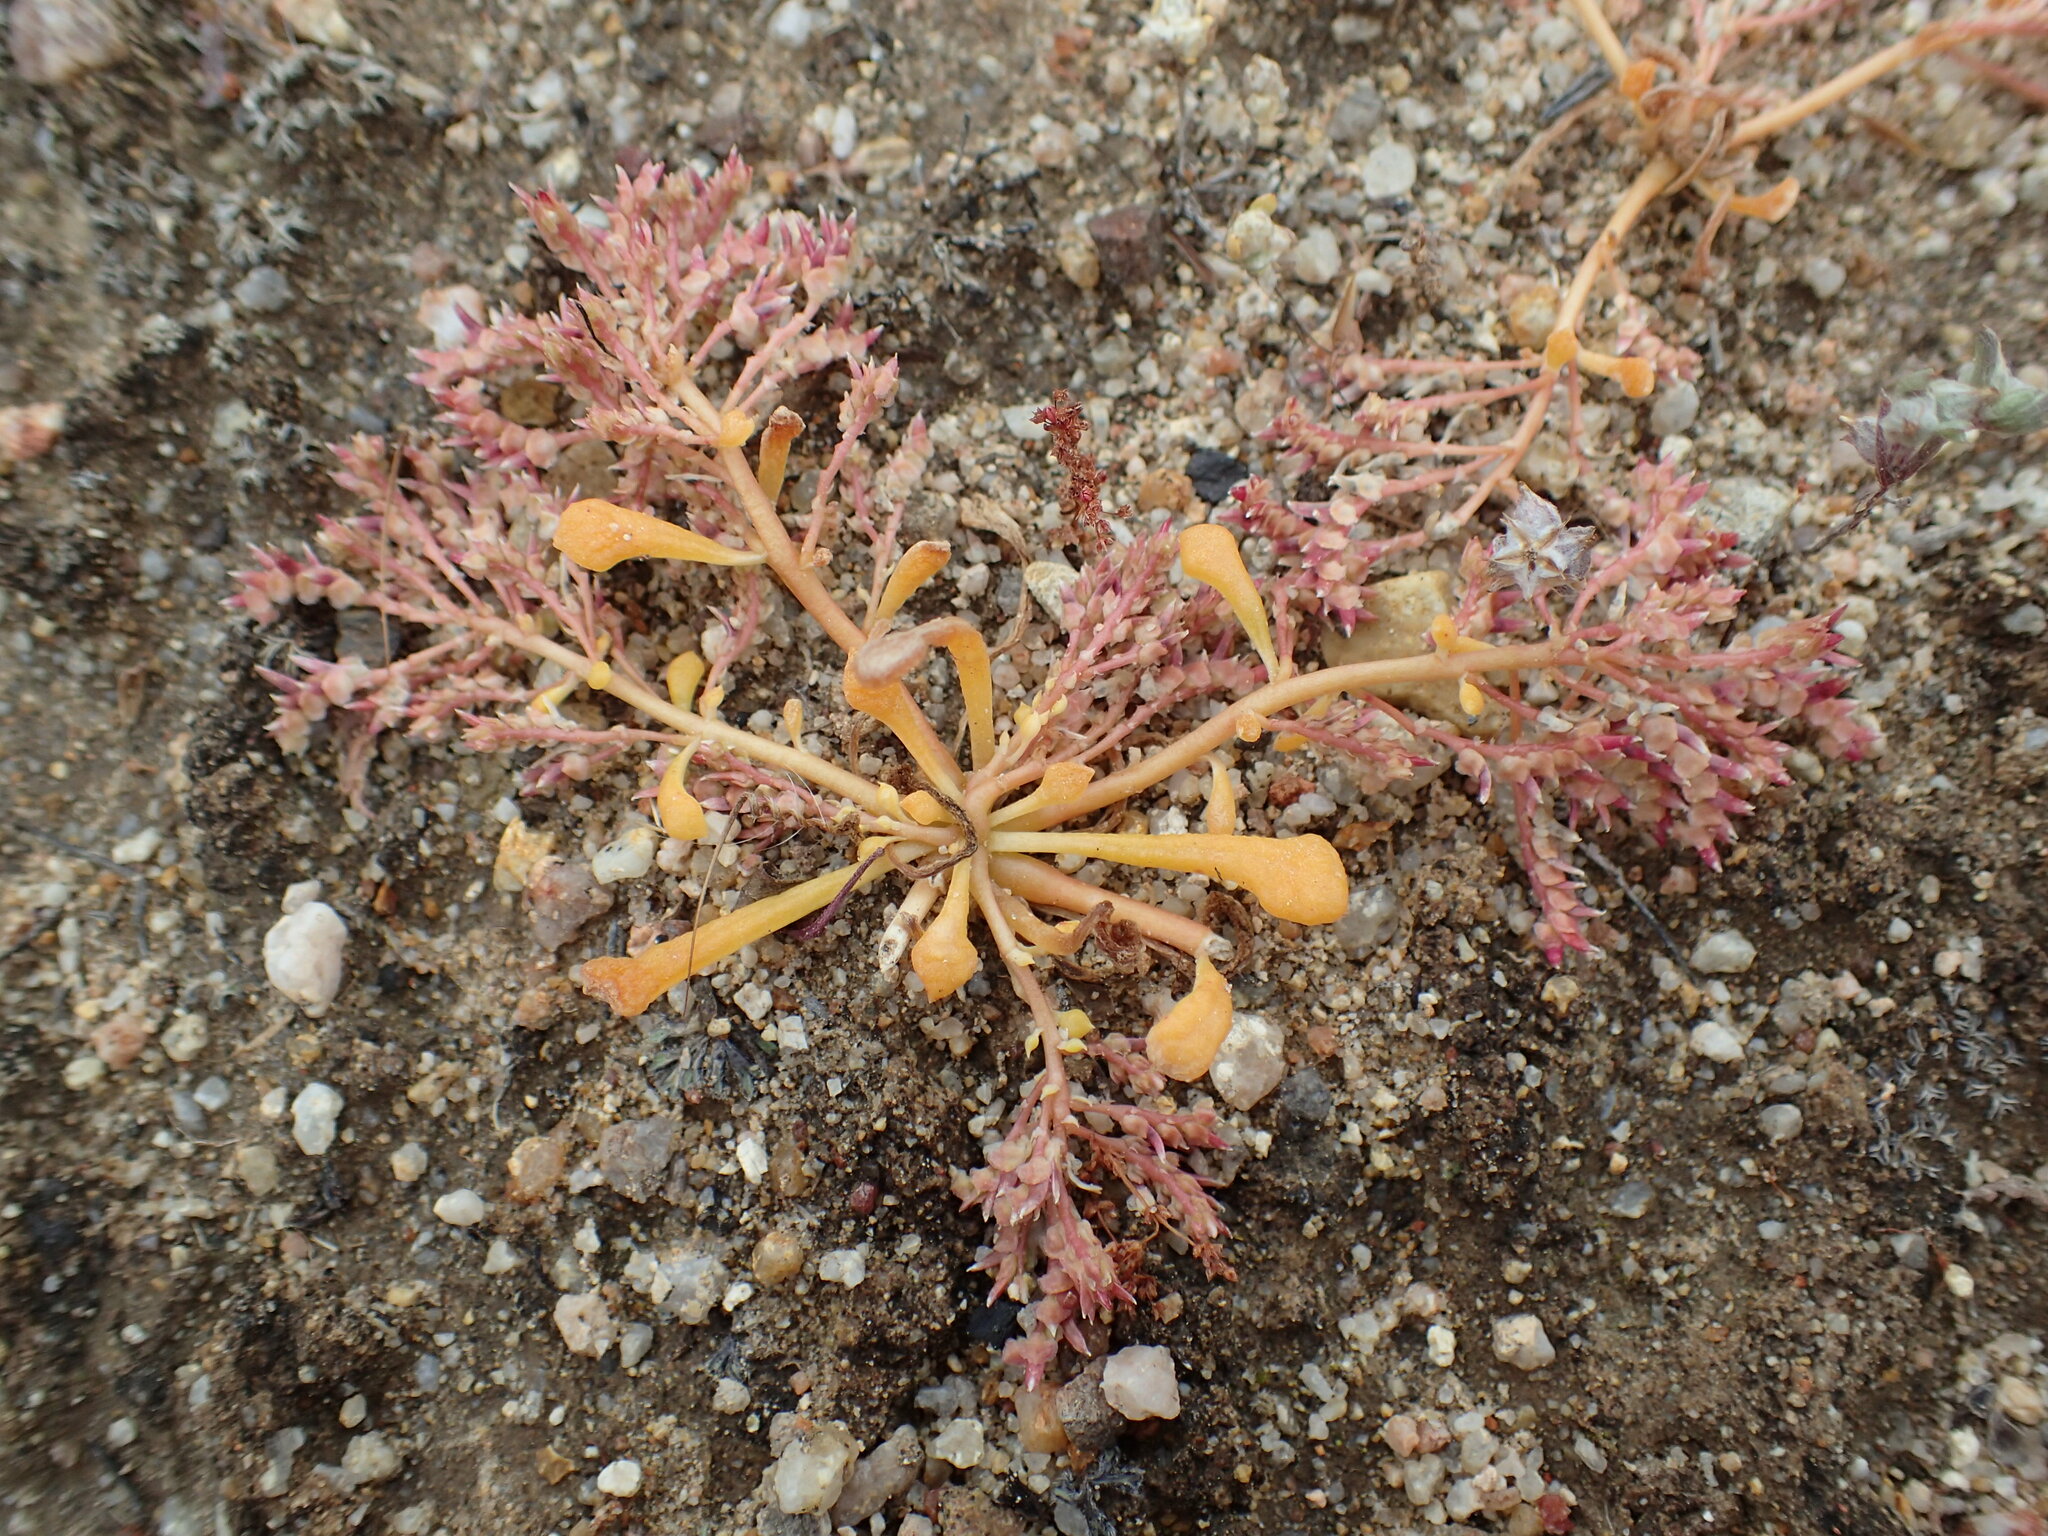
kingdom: Plantae
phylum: Tracheophyta
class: Magnoliopsida
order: Caryophyllales
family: Montiaceae
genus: Calyptridium
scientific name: Calyptridium monandrum
